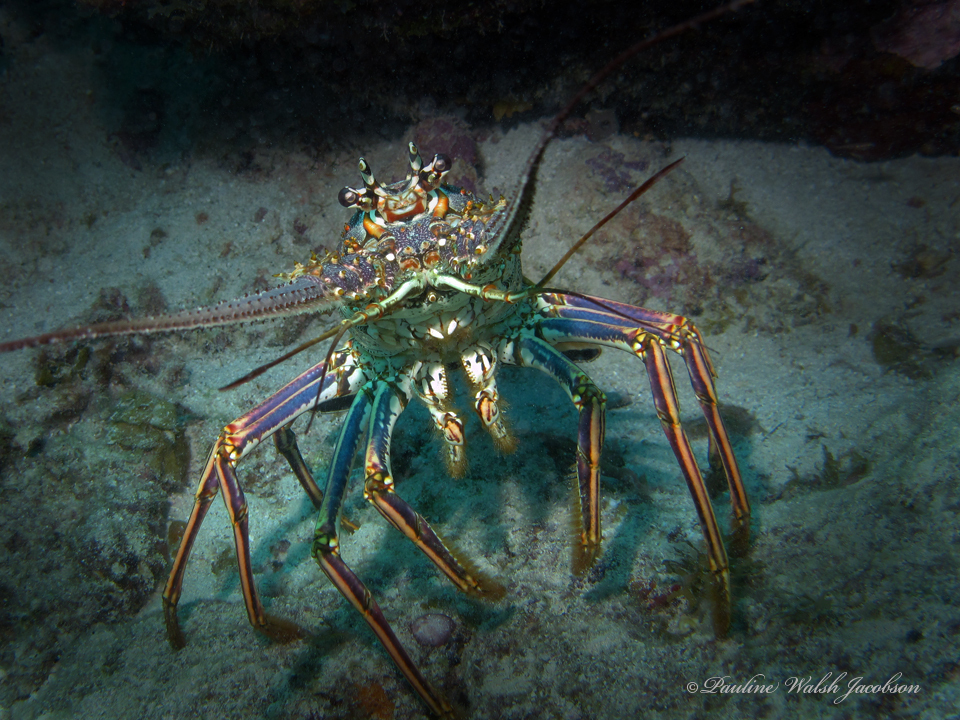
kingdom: Animalia
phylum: Arthropoda
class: Malacostraca
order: Decapoda
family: Palinuridae
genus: Panulirus
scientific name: Panulirus argus
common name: Caribbean spiny lobster
